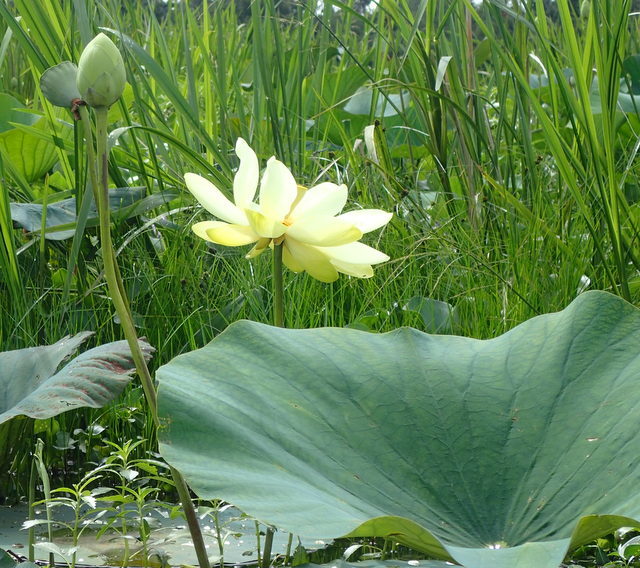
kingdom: Plantae
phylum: Tracheophyta
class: Magnoliopsida
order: Proteales
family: Nelumbonaceae
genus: Nelumbo
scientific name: Nelumbo lutea
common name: American lotus
